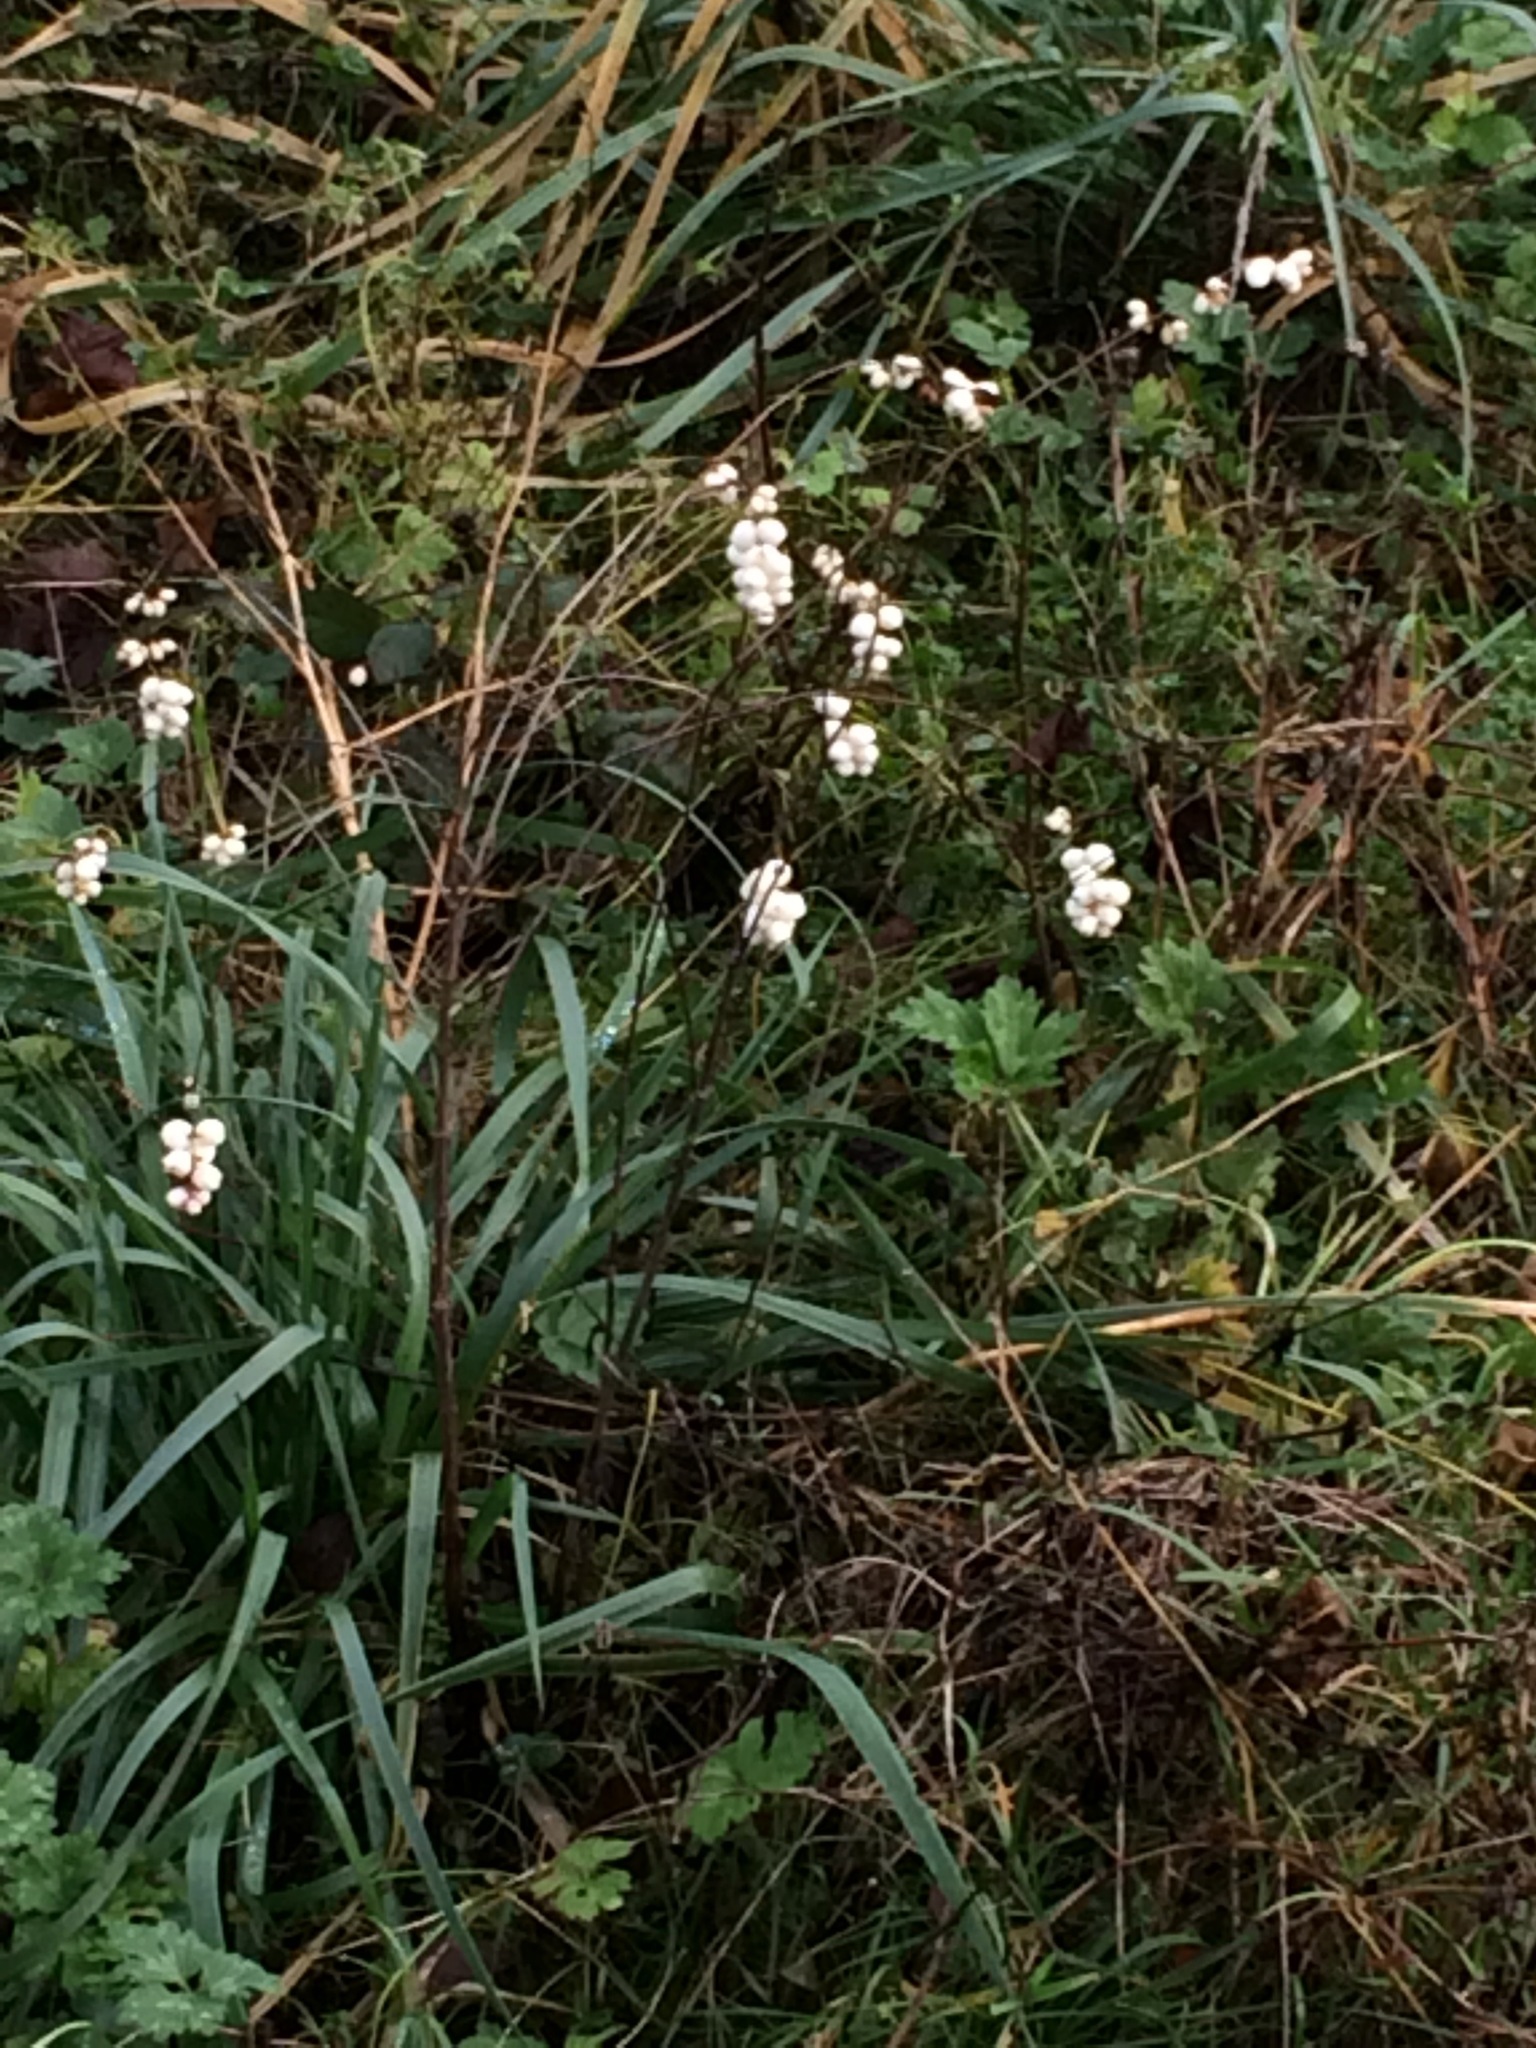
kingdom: Plantae
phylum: Tracheophyta
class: Magnoliopsida
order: Dipsacales
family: Caprifoliaceae
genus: Symphoricarpos
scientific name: Symphoricarpos albus
